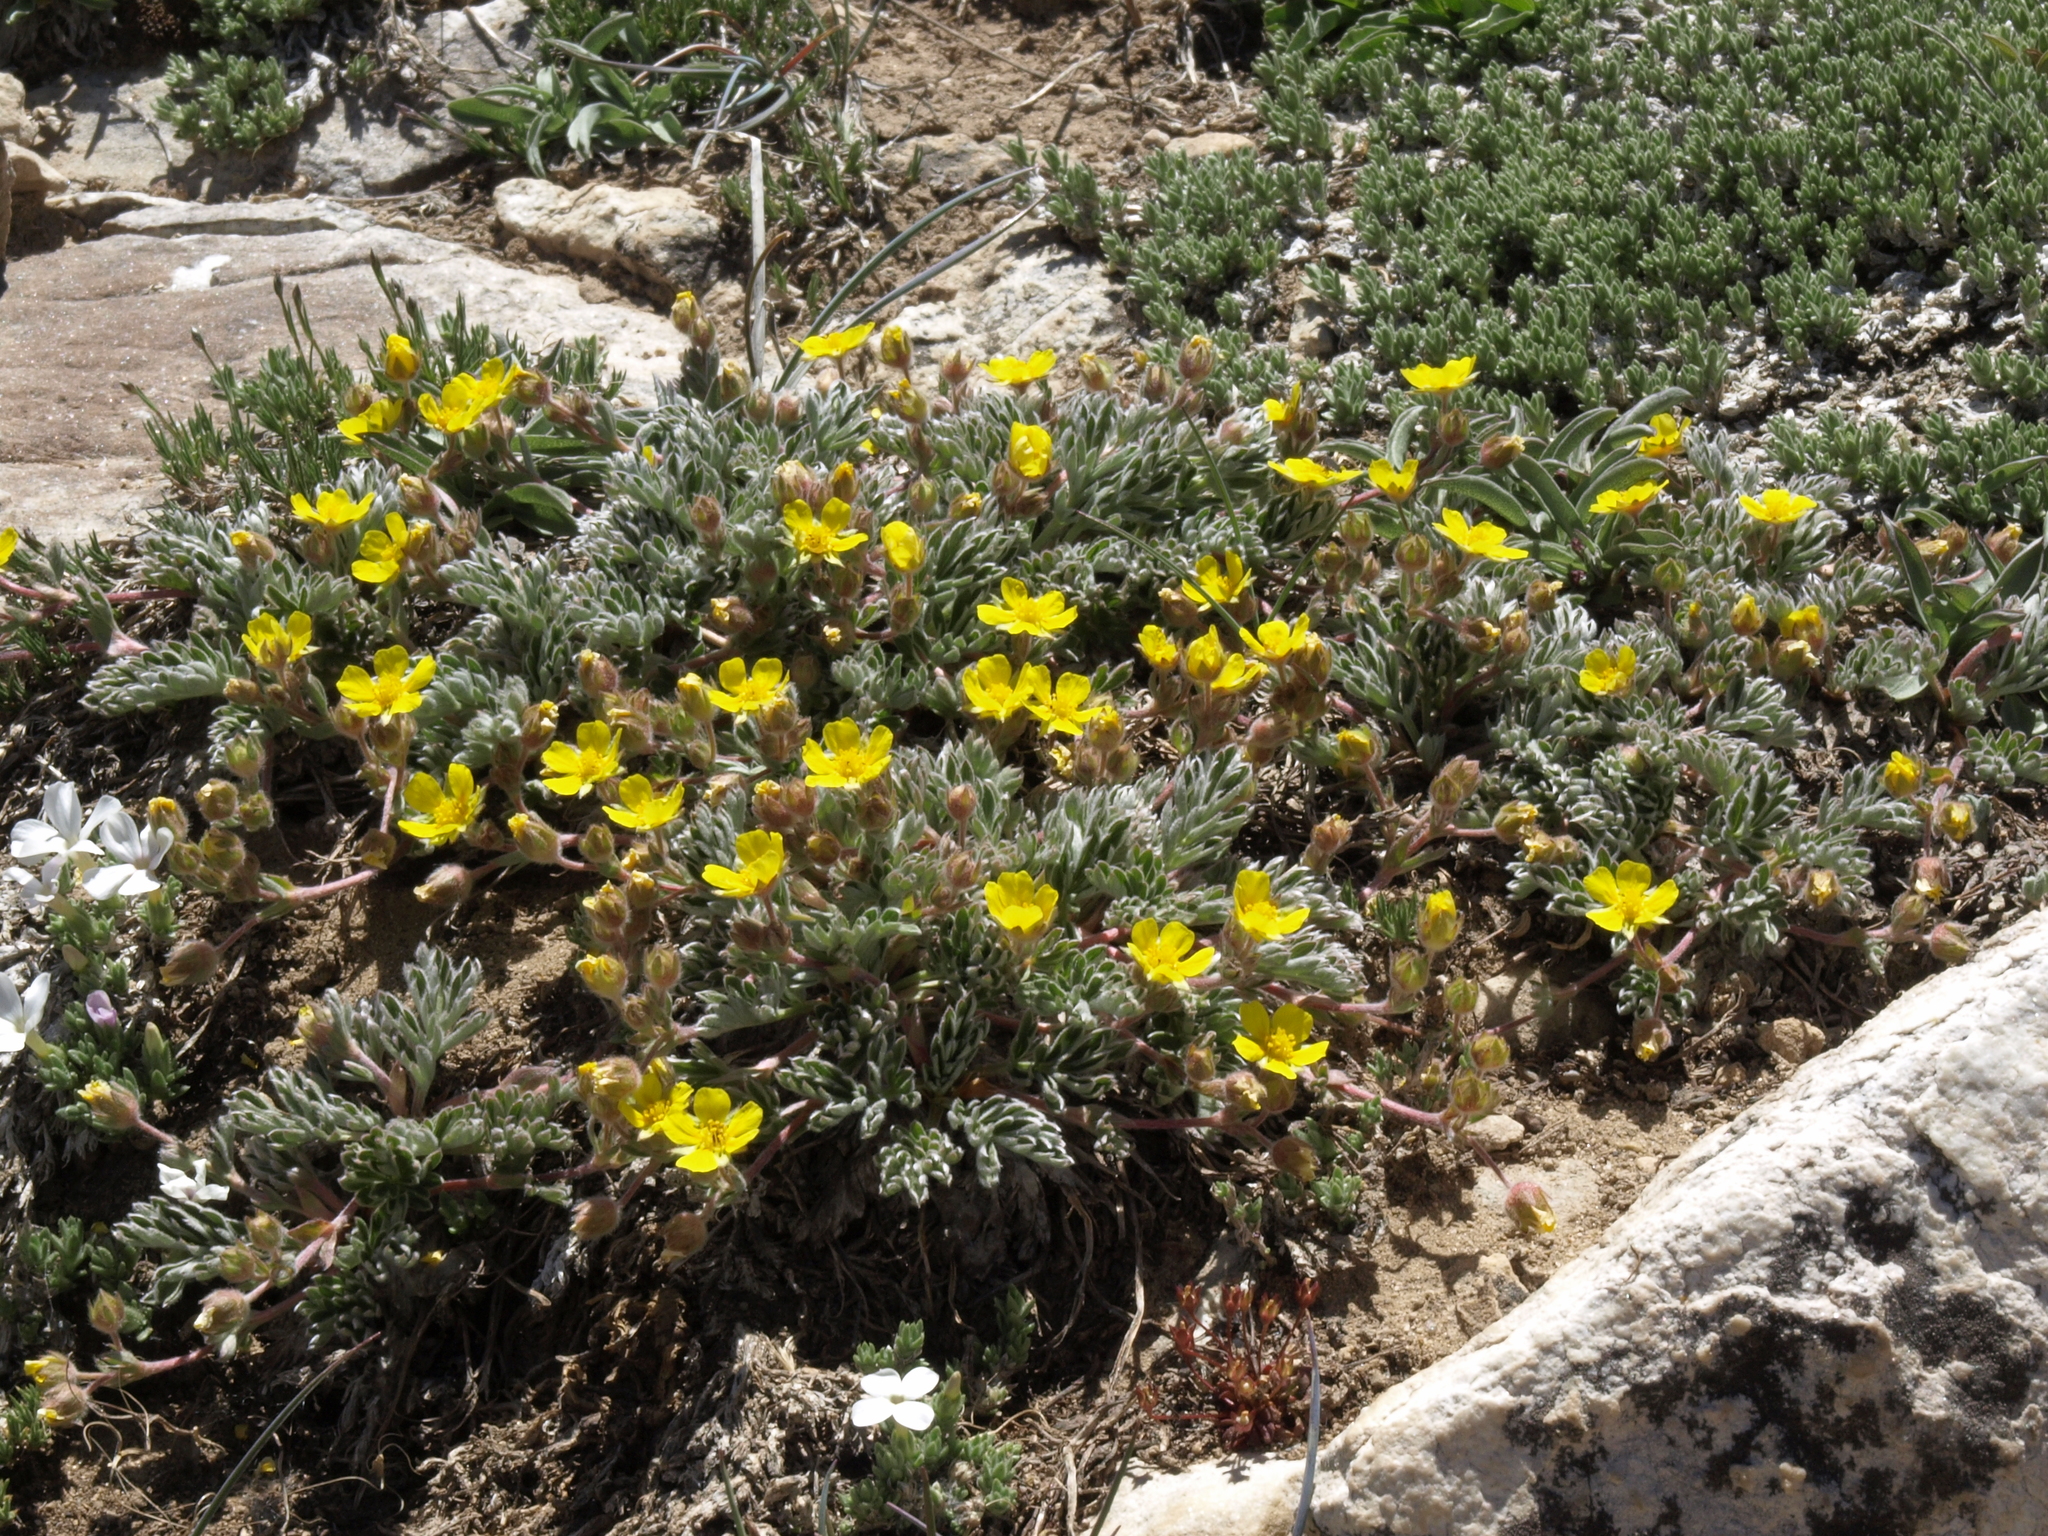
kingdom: Plantae
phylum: Tracheophyta
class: Magnoliopsida
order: Rosales
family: Rosaceae
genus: Potentilla
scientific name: Potentilla morefieldii
